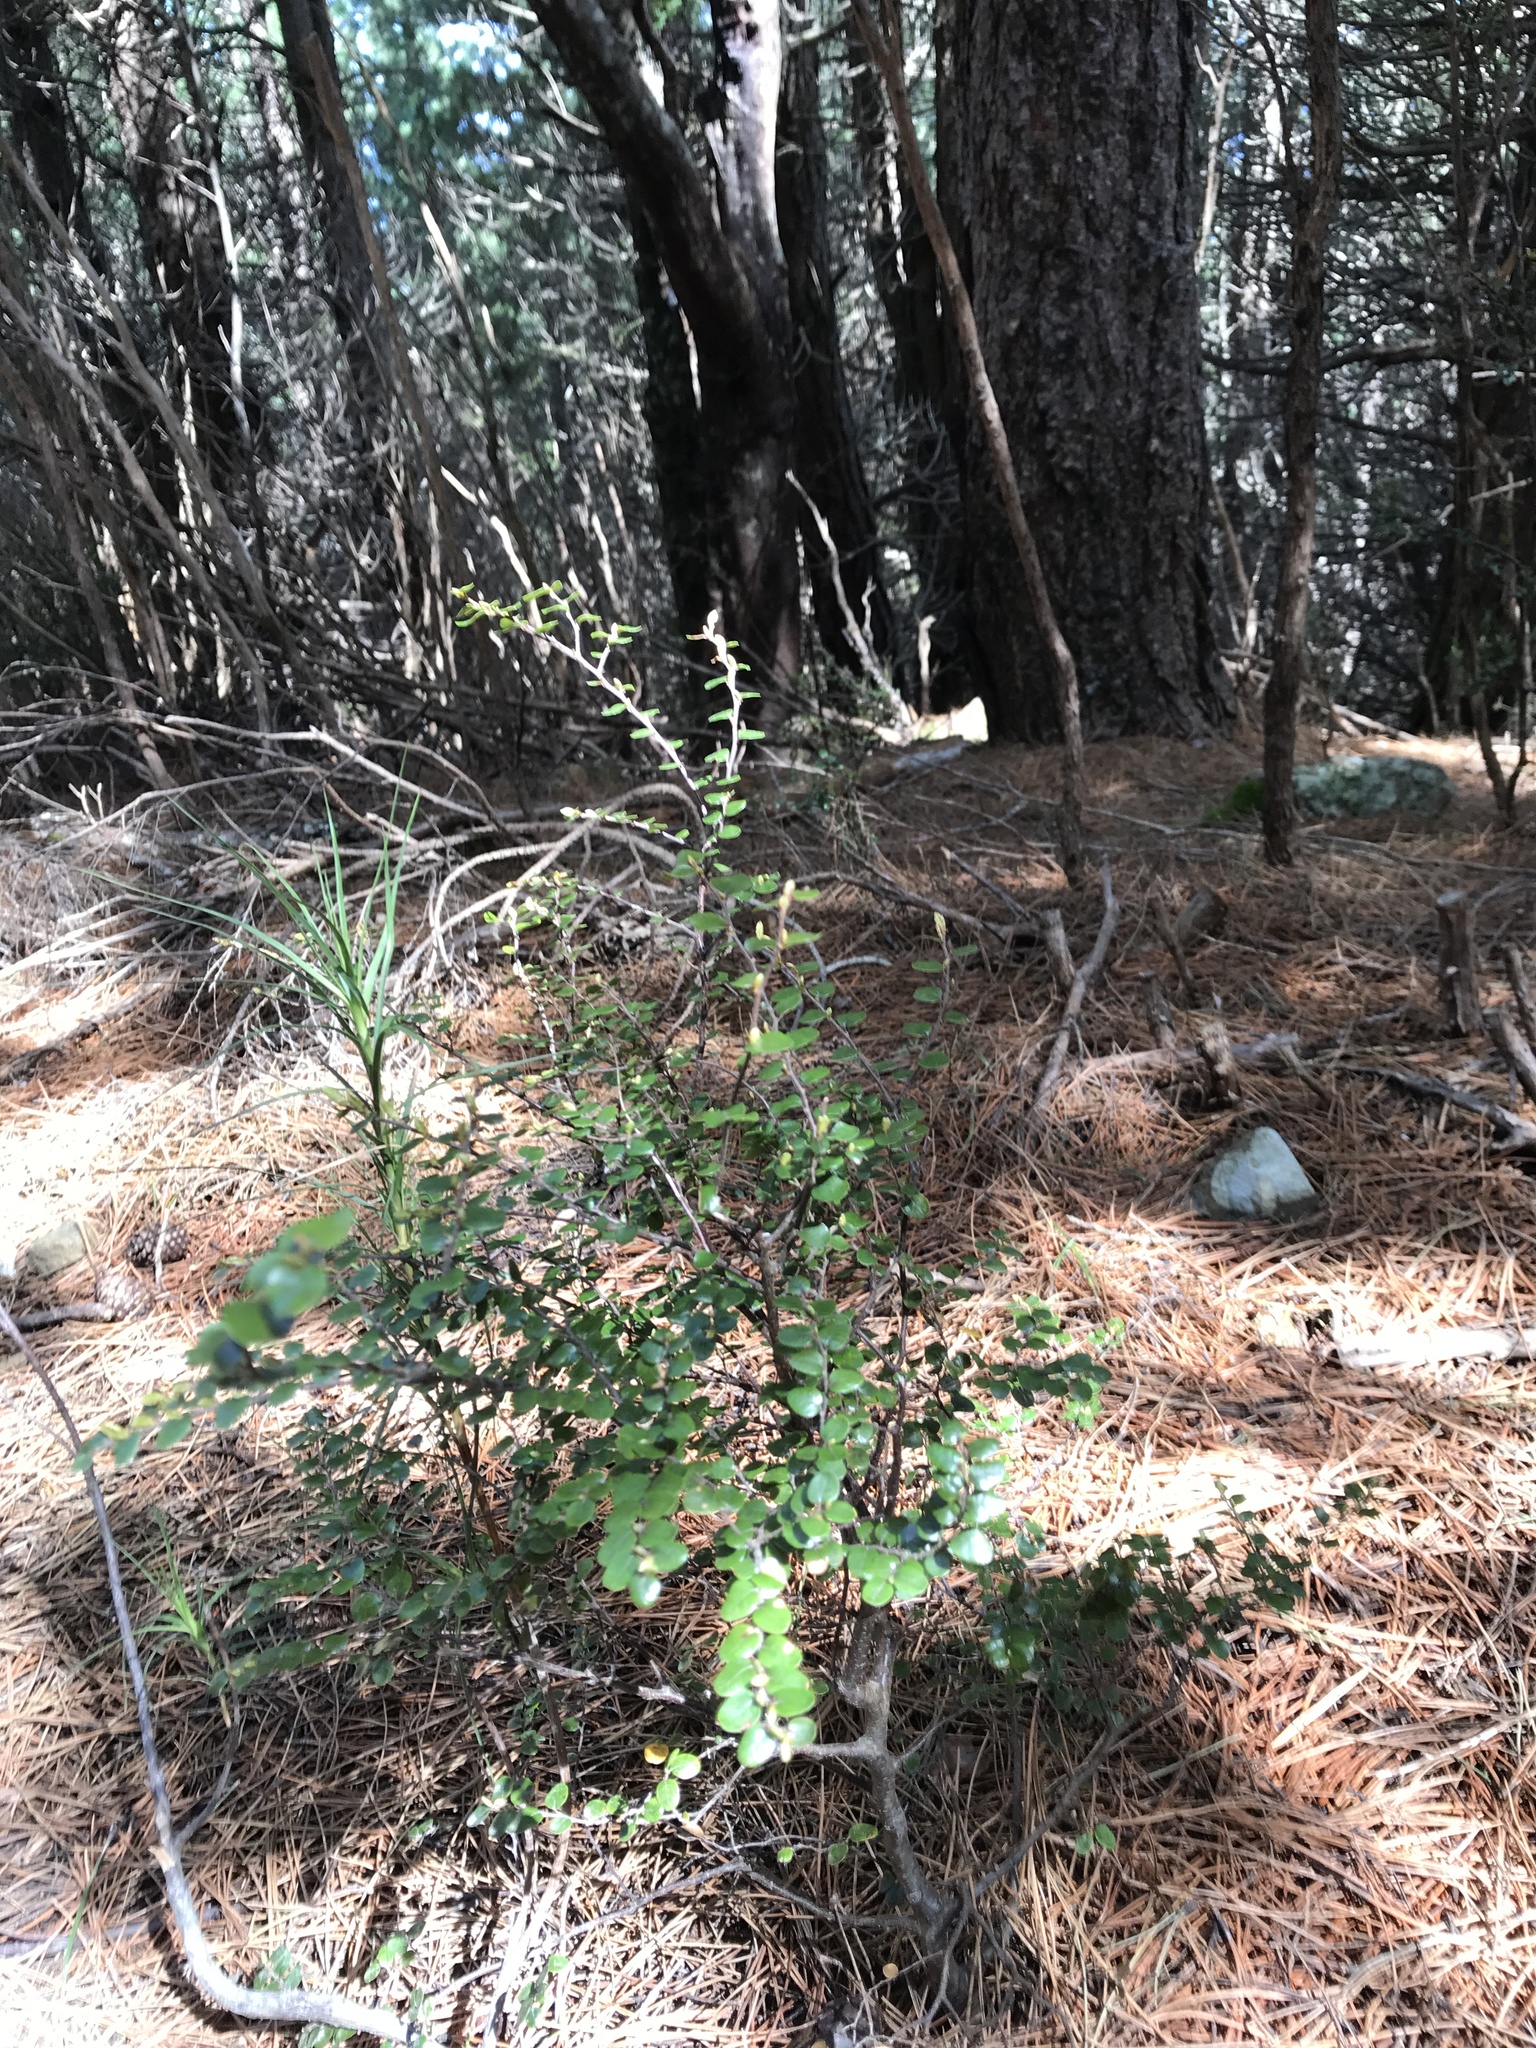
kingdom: Plantae
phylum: Tracheophyta
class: Magnoliopsida
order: Fagales
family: Nothofagaceae
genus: Nothofagus
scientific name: Nothofagus cliffortioides
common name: Mountain beech
